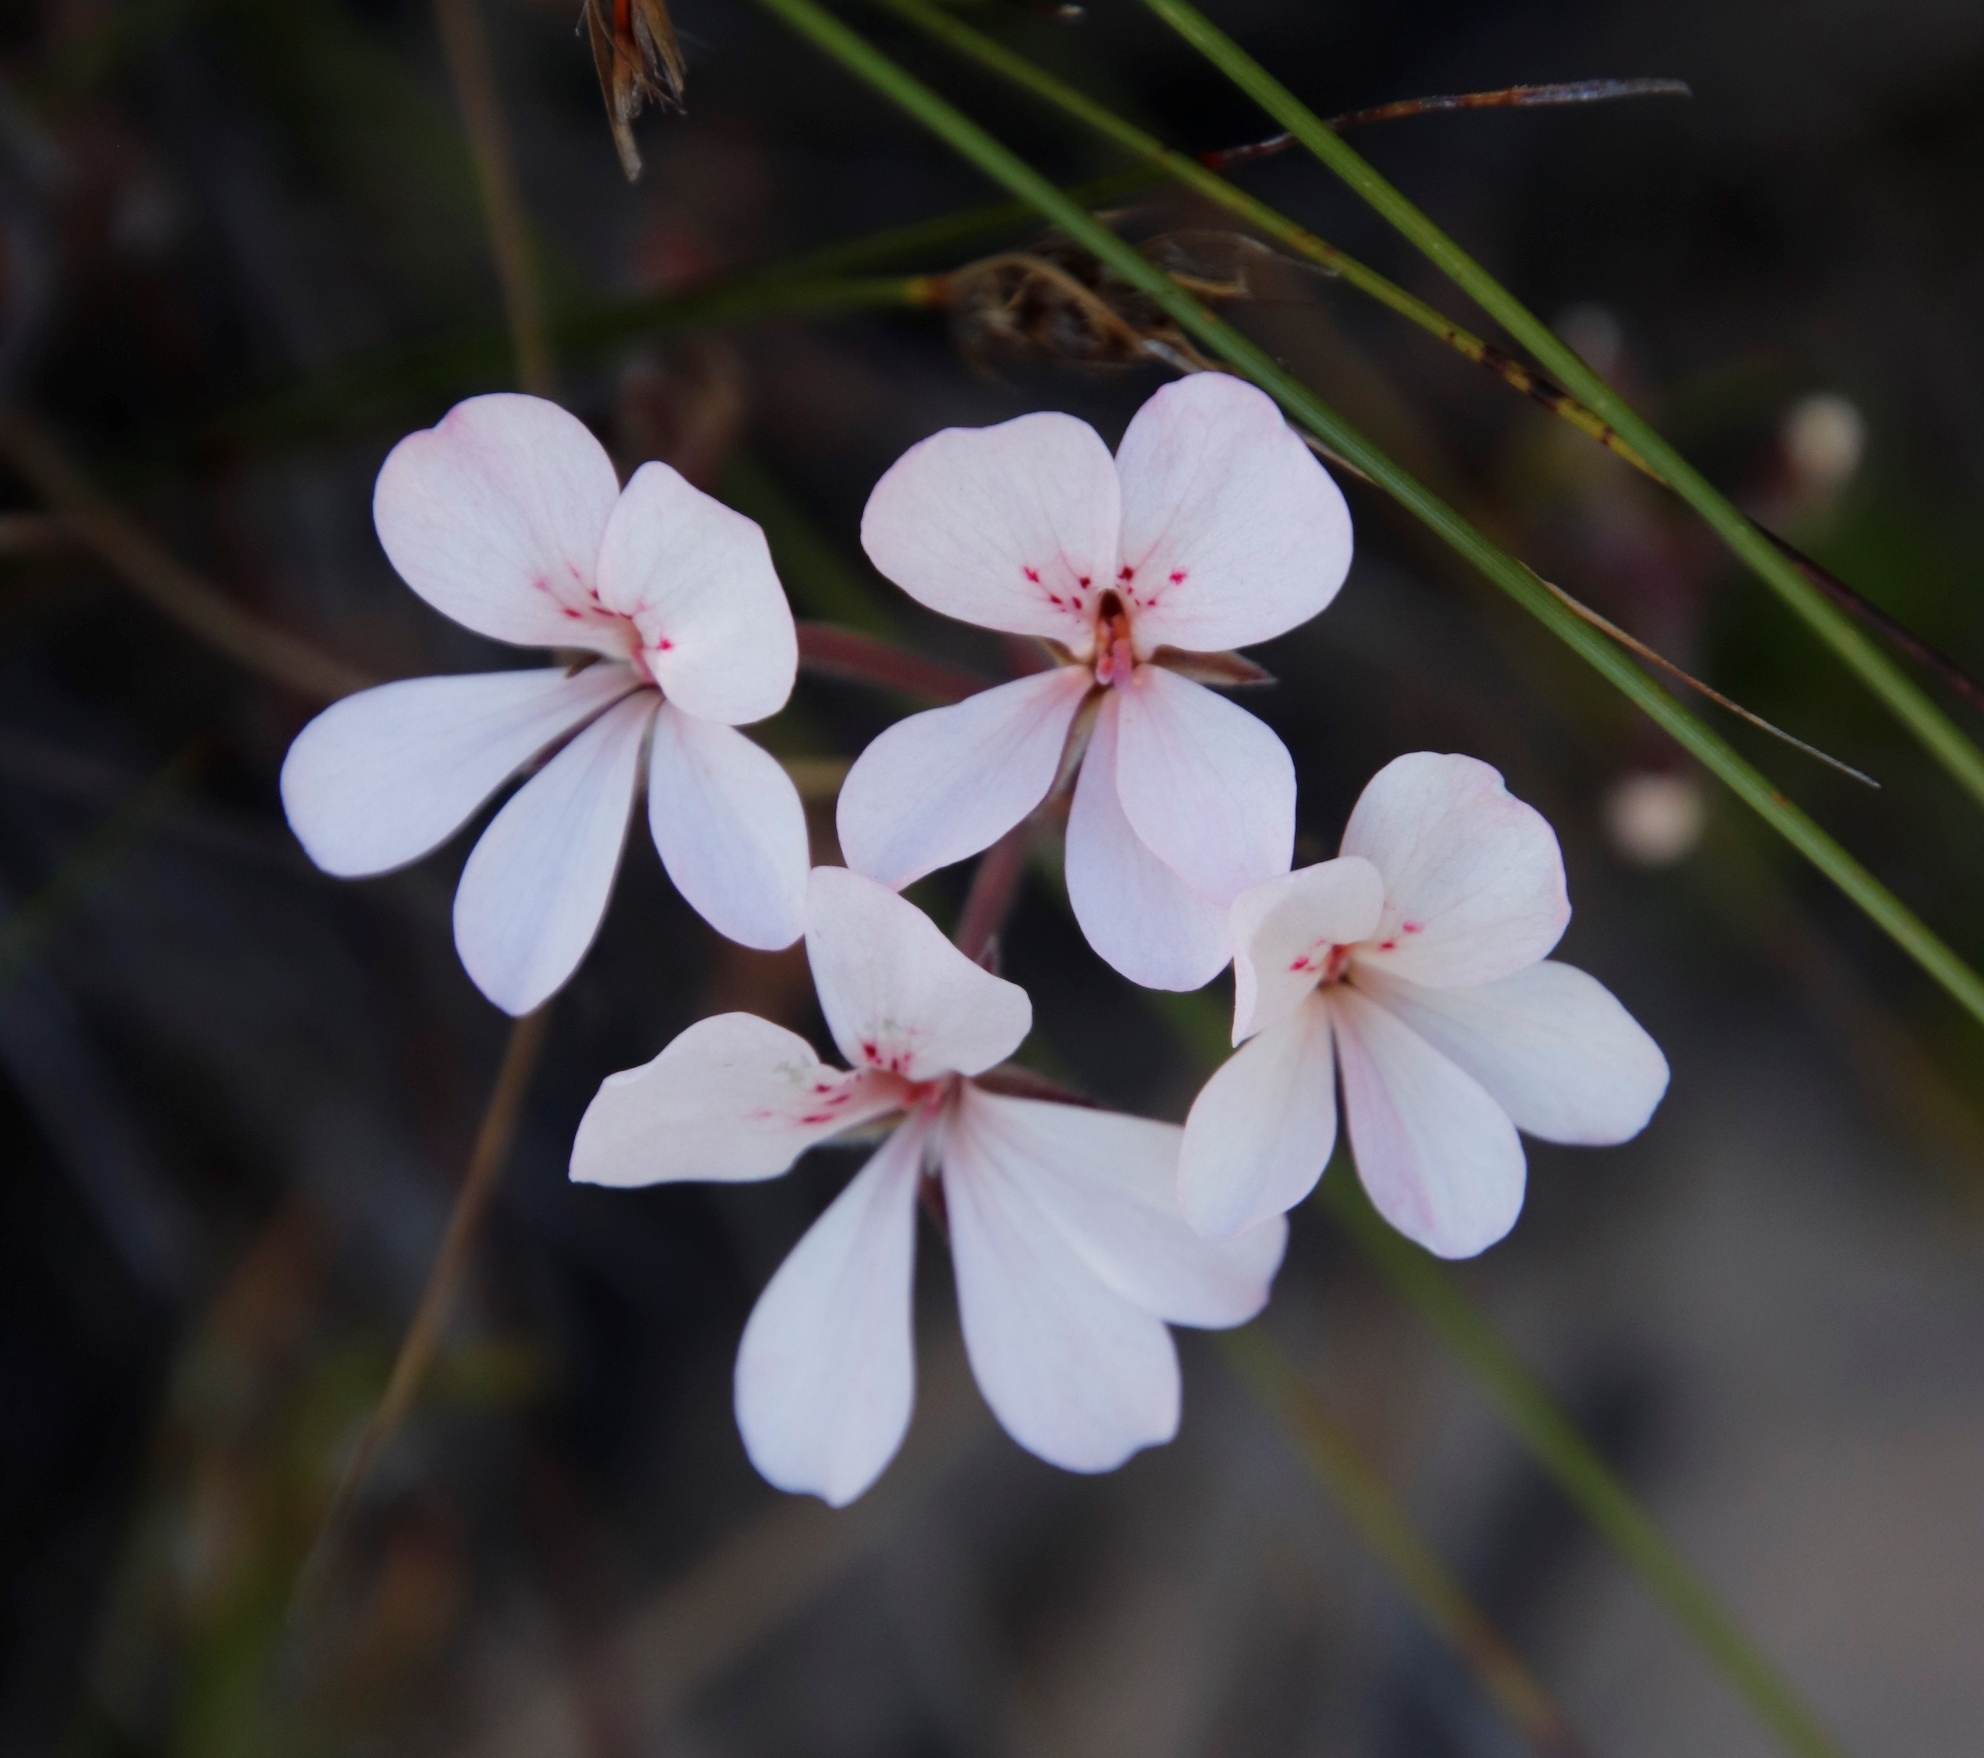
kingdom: Plantae
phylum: Tracheophyta
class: Magnoliopsida
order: Geraniales
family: Geraniaceae
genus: Pelargonium
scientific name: Pelargonium pinnatum
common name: Pinnated pelargonium
